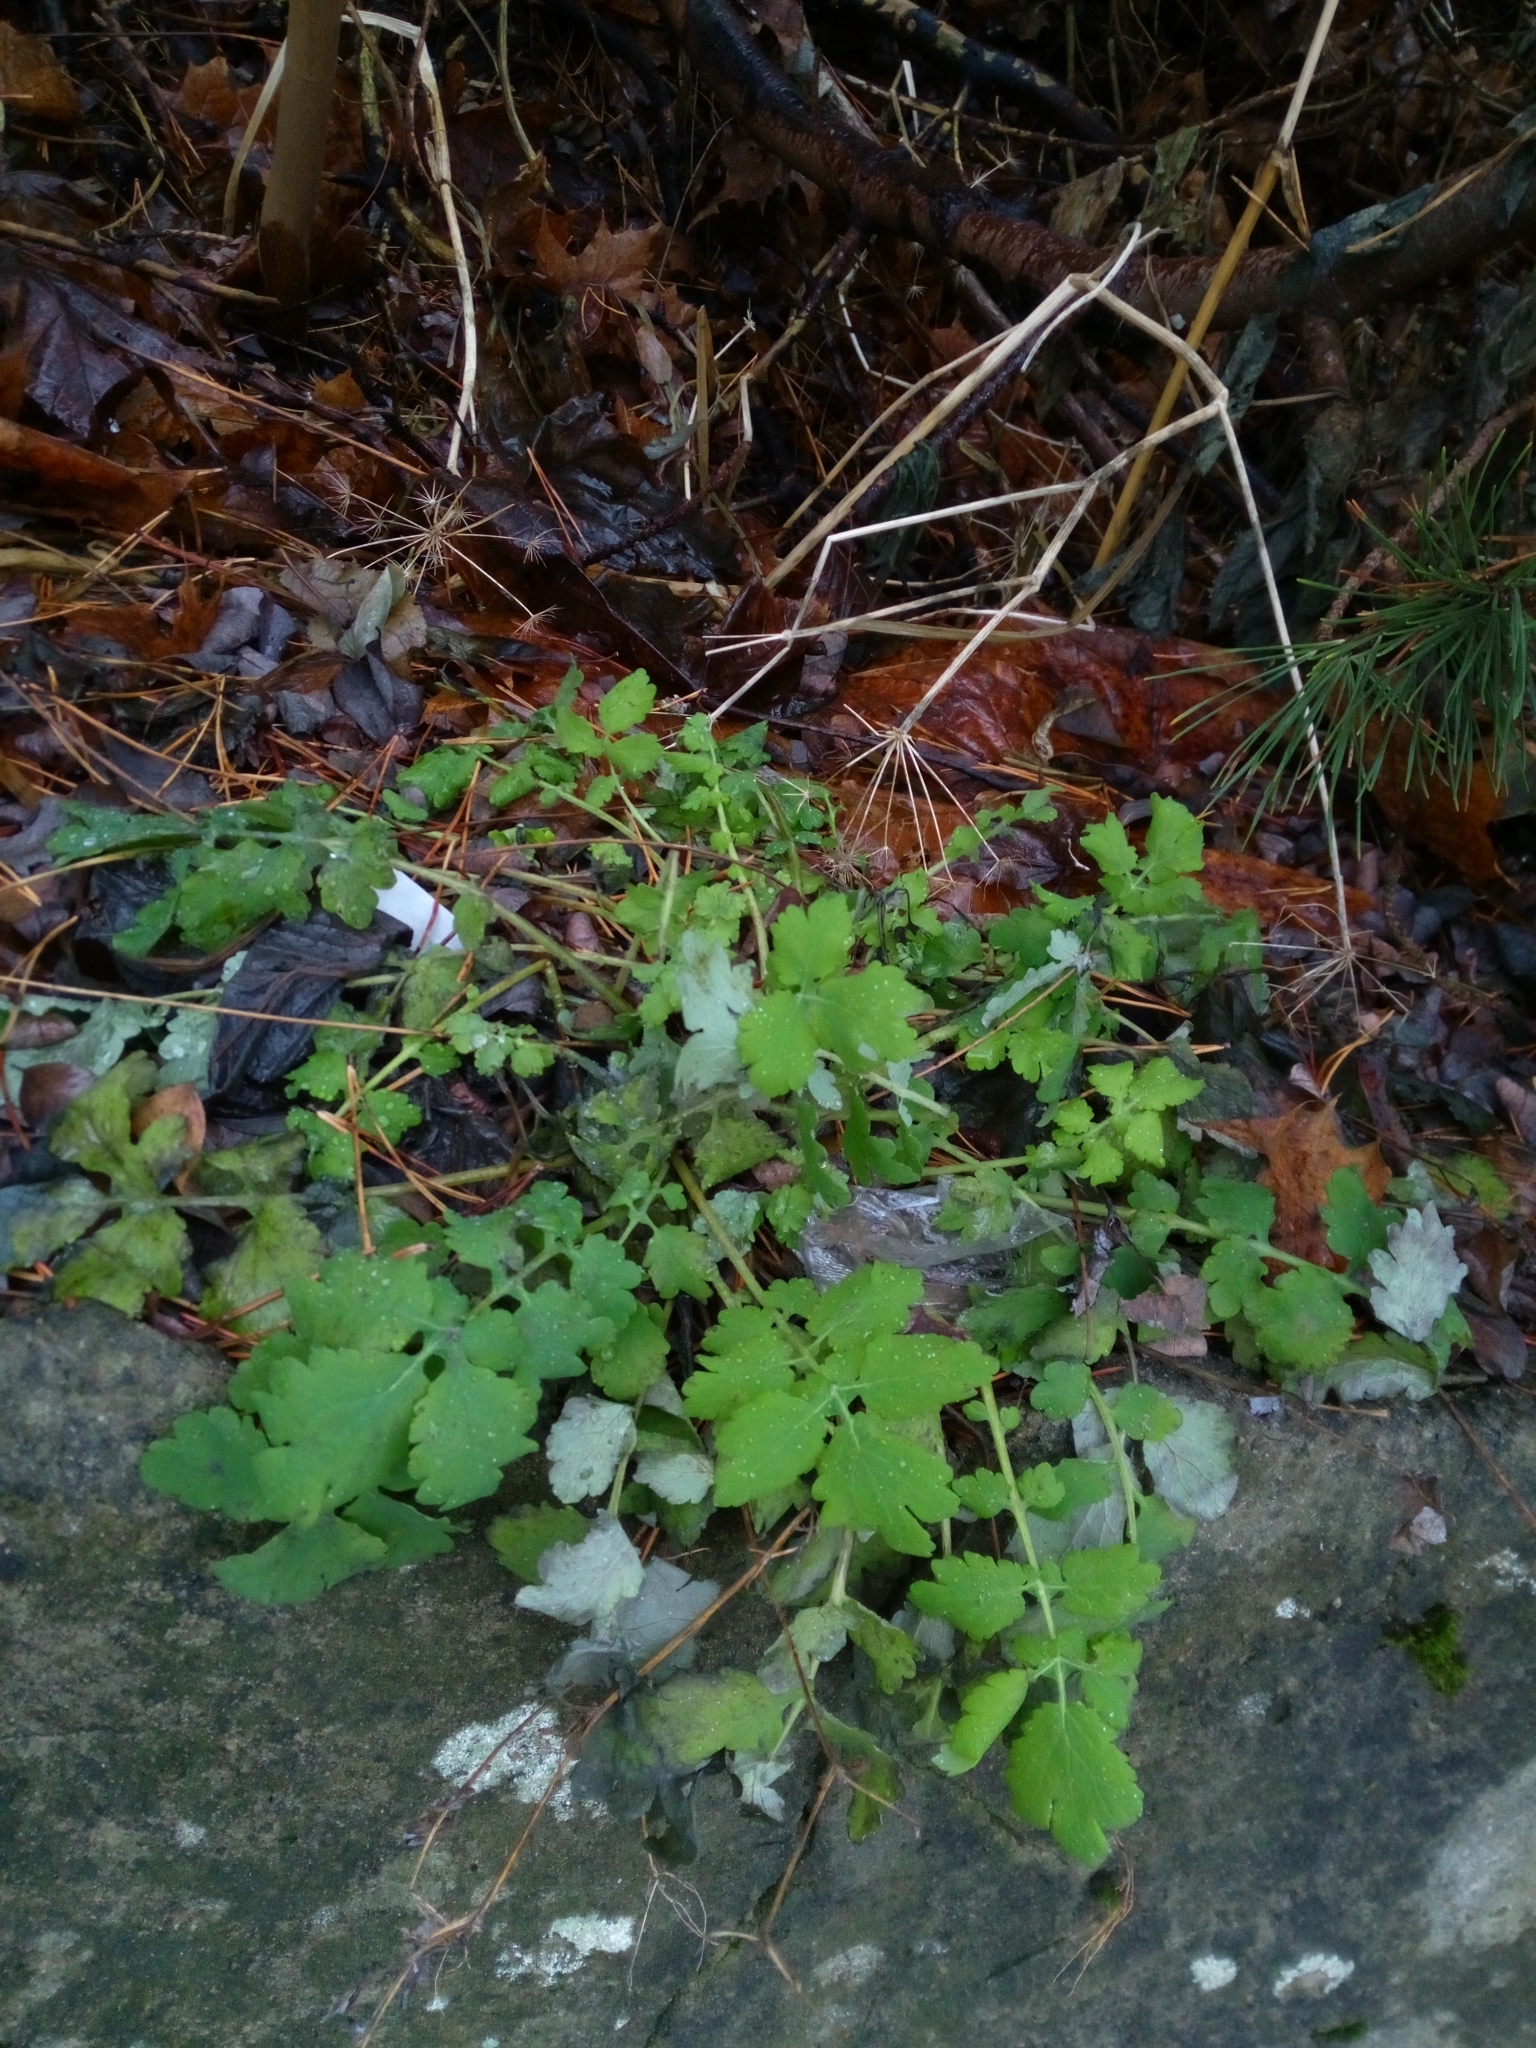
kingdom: Plantae
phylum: Tracheophyta
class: Magnoliopsida
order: Ranunculales
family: Papaveraceae
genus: Chelidonium
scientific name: Chelidonium majus
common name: Greater celandine
